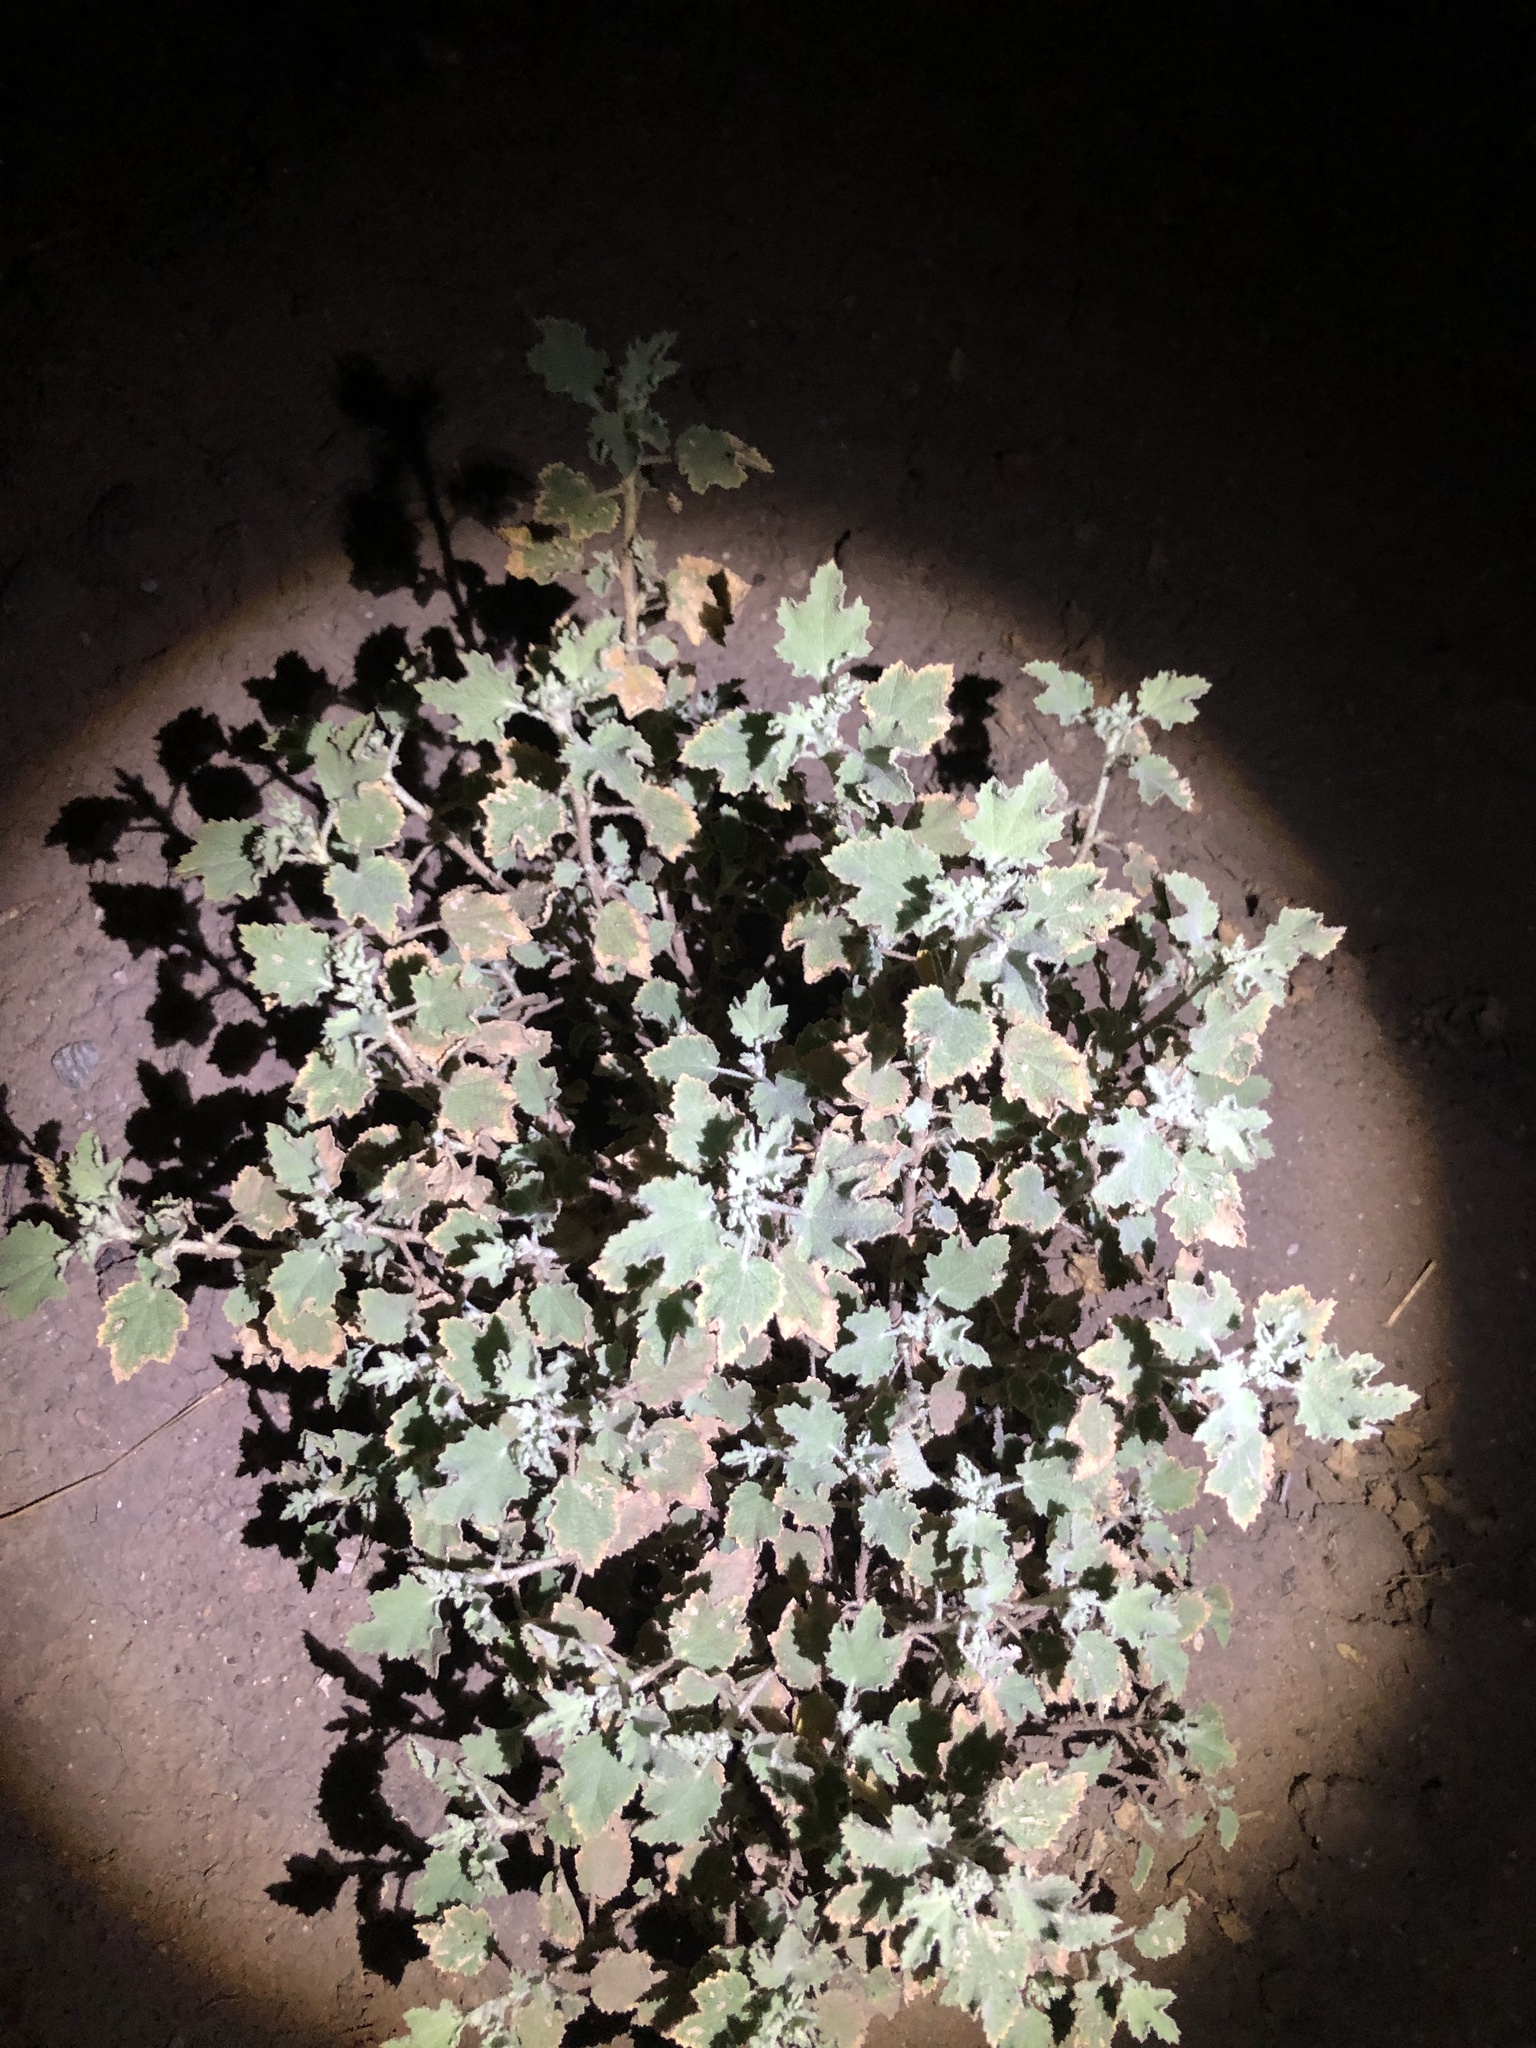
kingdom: Plantae
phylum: Tracheophyta
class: Magnoliopsida
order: Malvales
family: Malvaceae
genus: Malacothamnus
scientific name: Malacothamnus marrubioides
